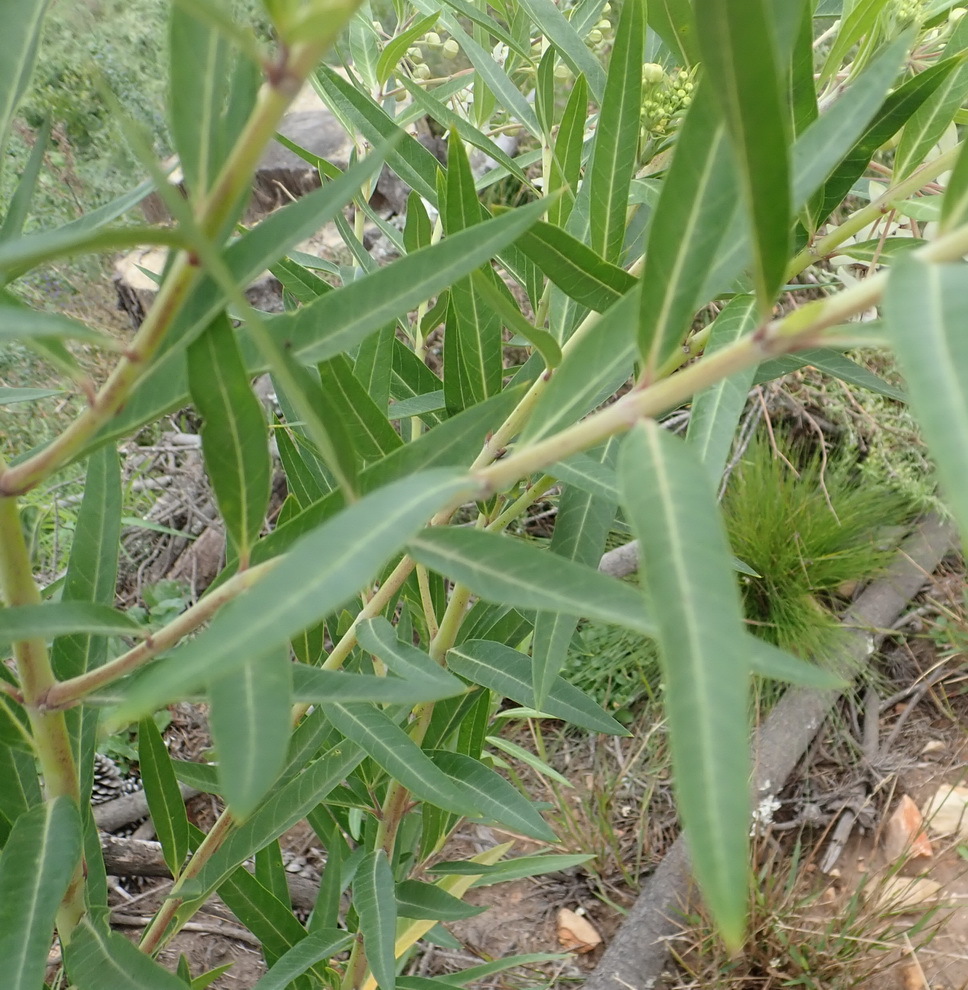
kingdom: Plantae
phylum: Tracheophyta
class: Magnoliopsida
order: Gentianales
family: Apocynaceae
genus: Gomphocarpus
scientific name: Gomphocarpus physocarpus
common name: Balloon cotton bush
